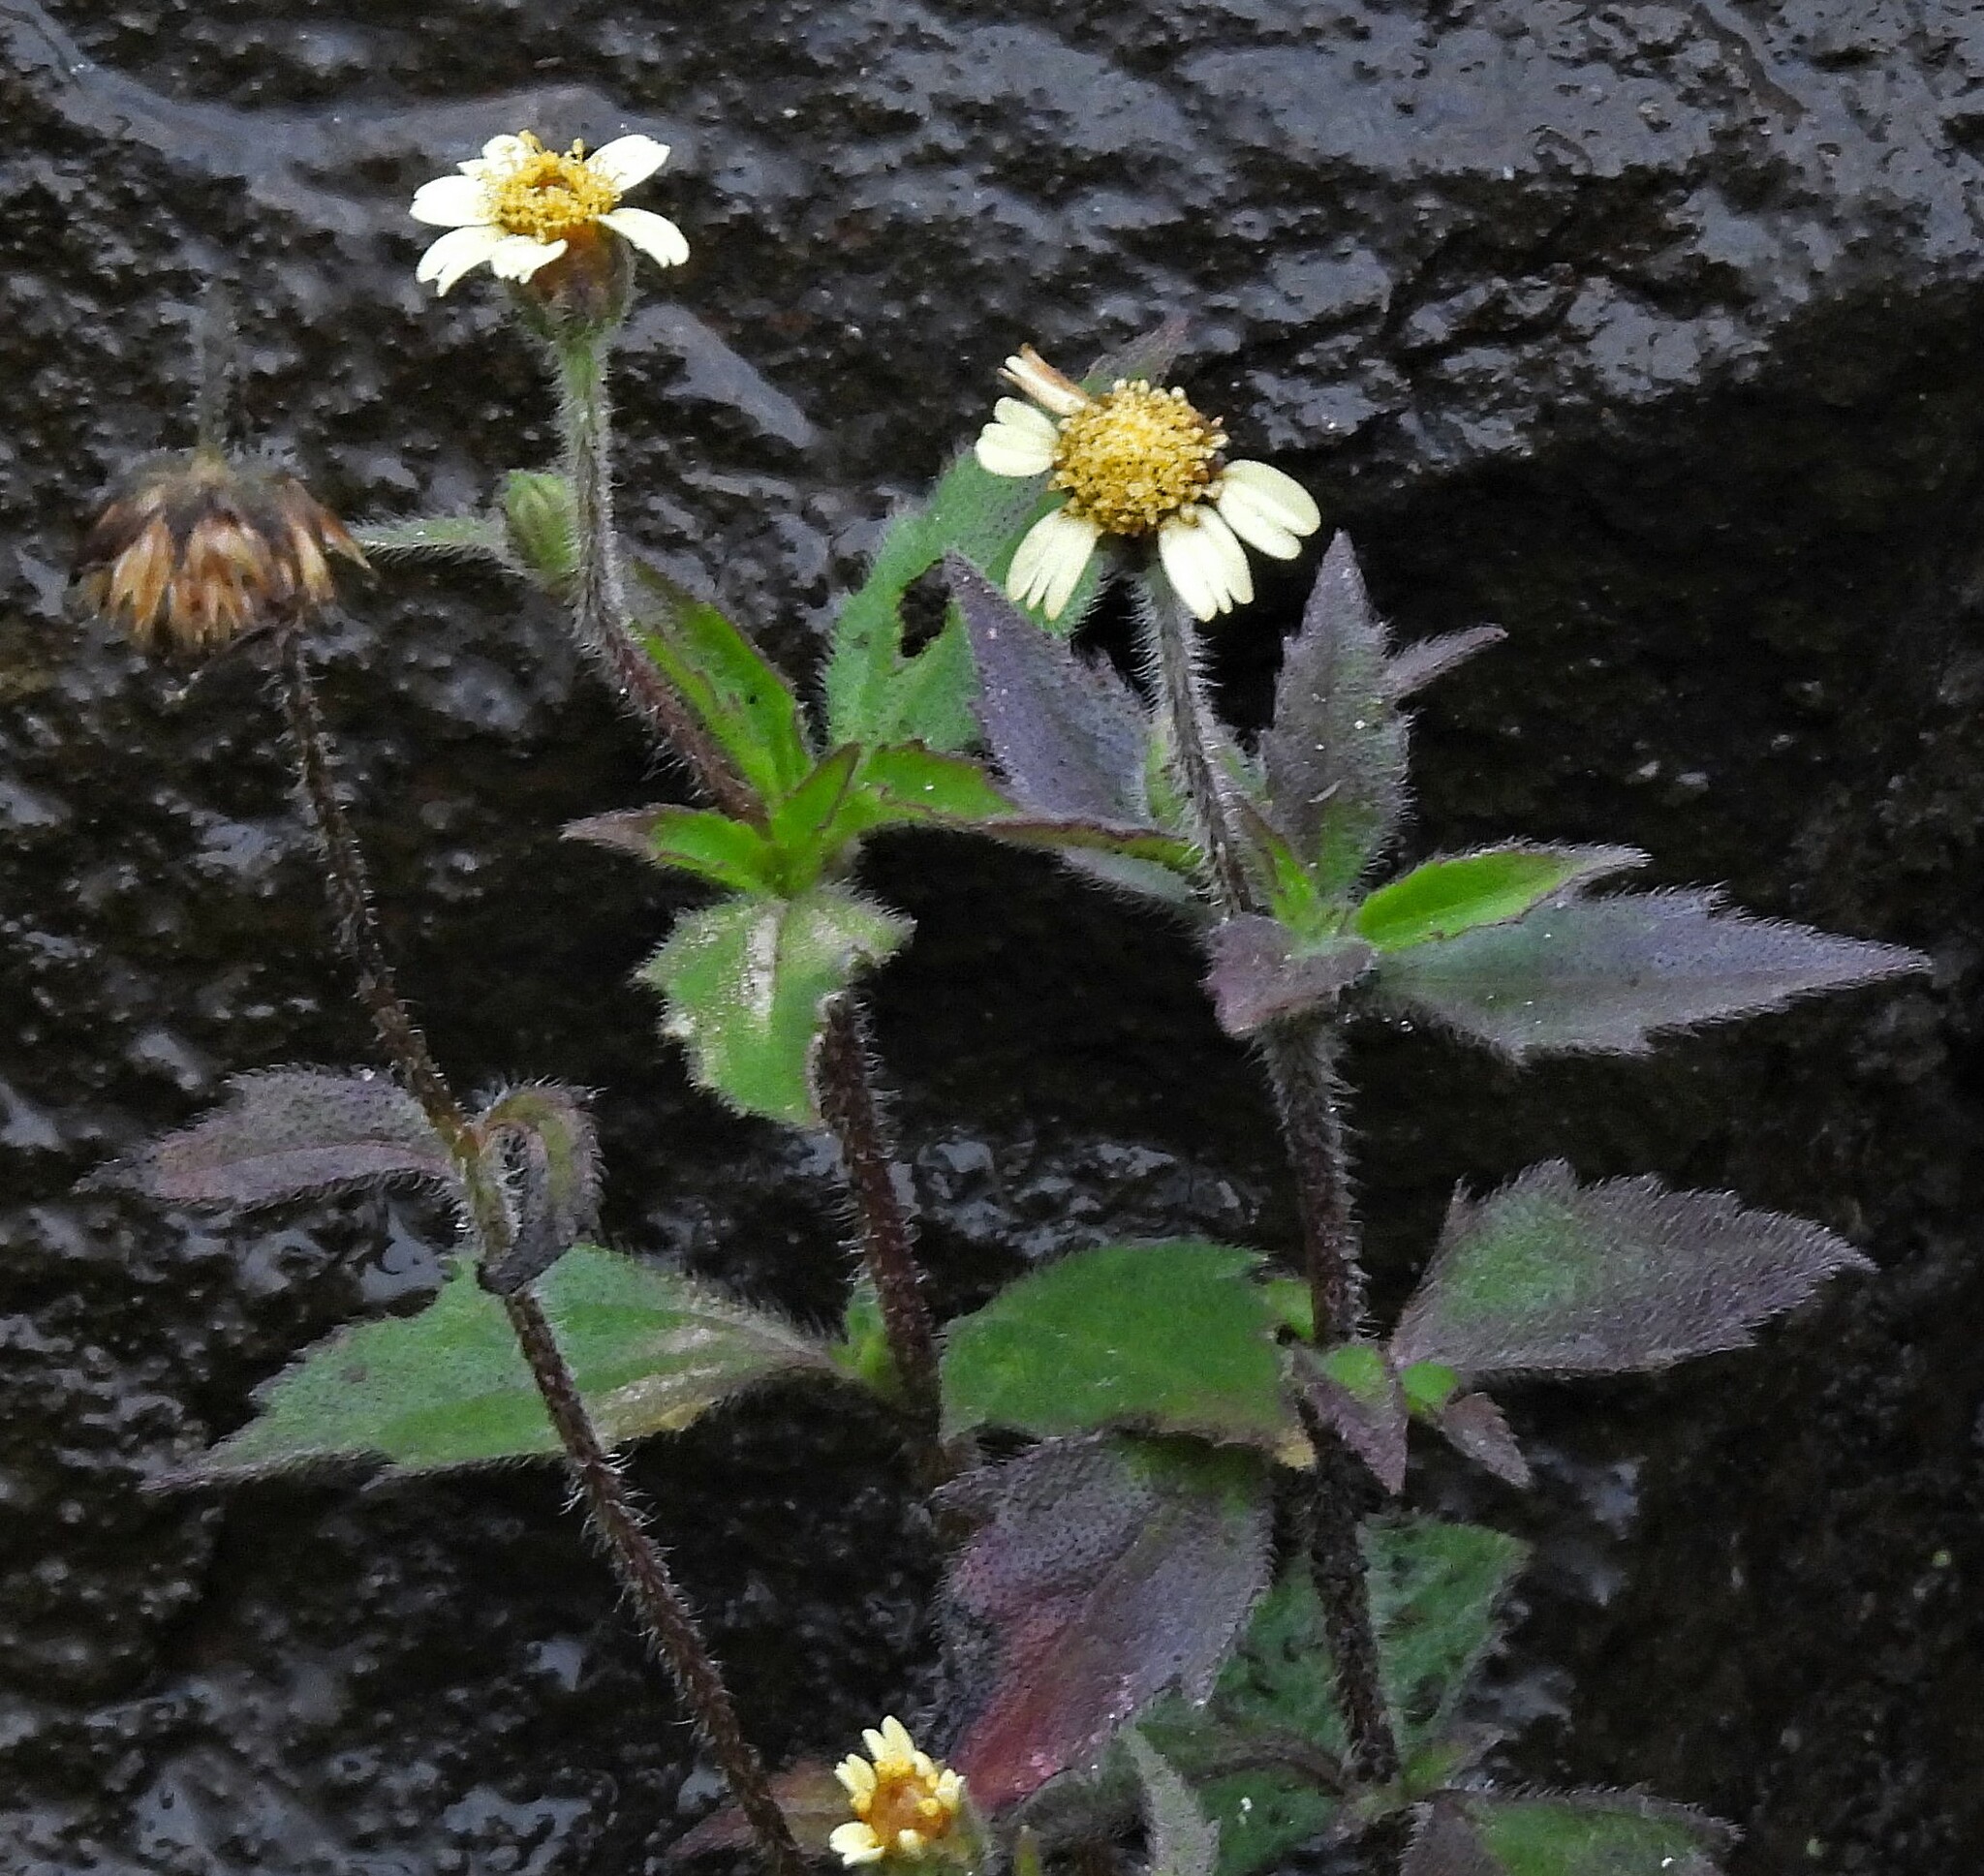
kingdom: Plantae
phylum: Tracheophyta
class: Magnoliopsida
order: Asterales
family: Asteraceae
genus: Tridax
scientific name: Tridax procumbens
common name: Coatbuttons
